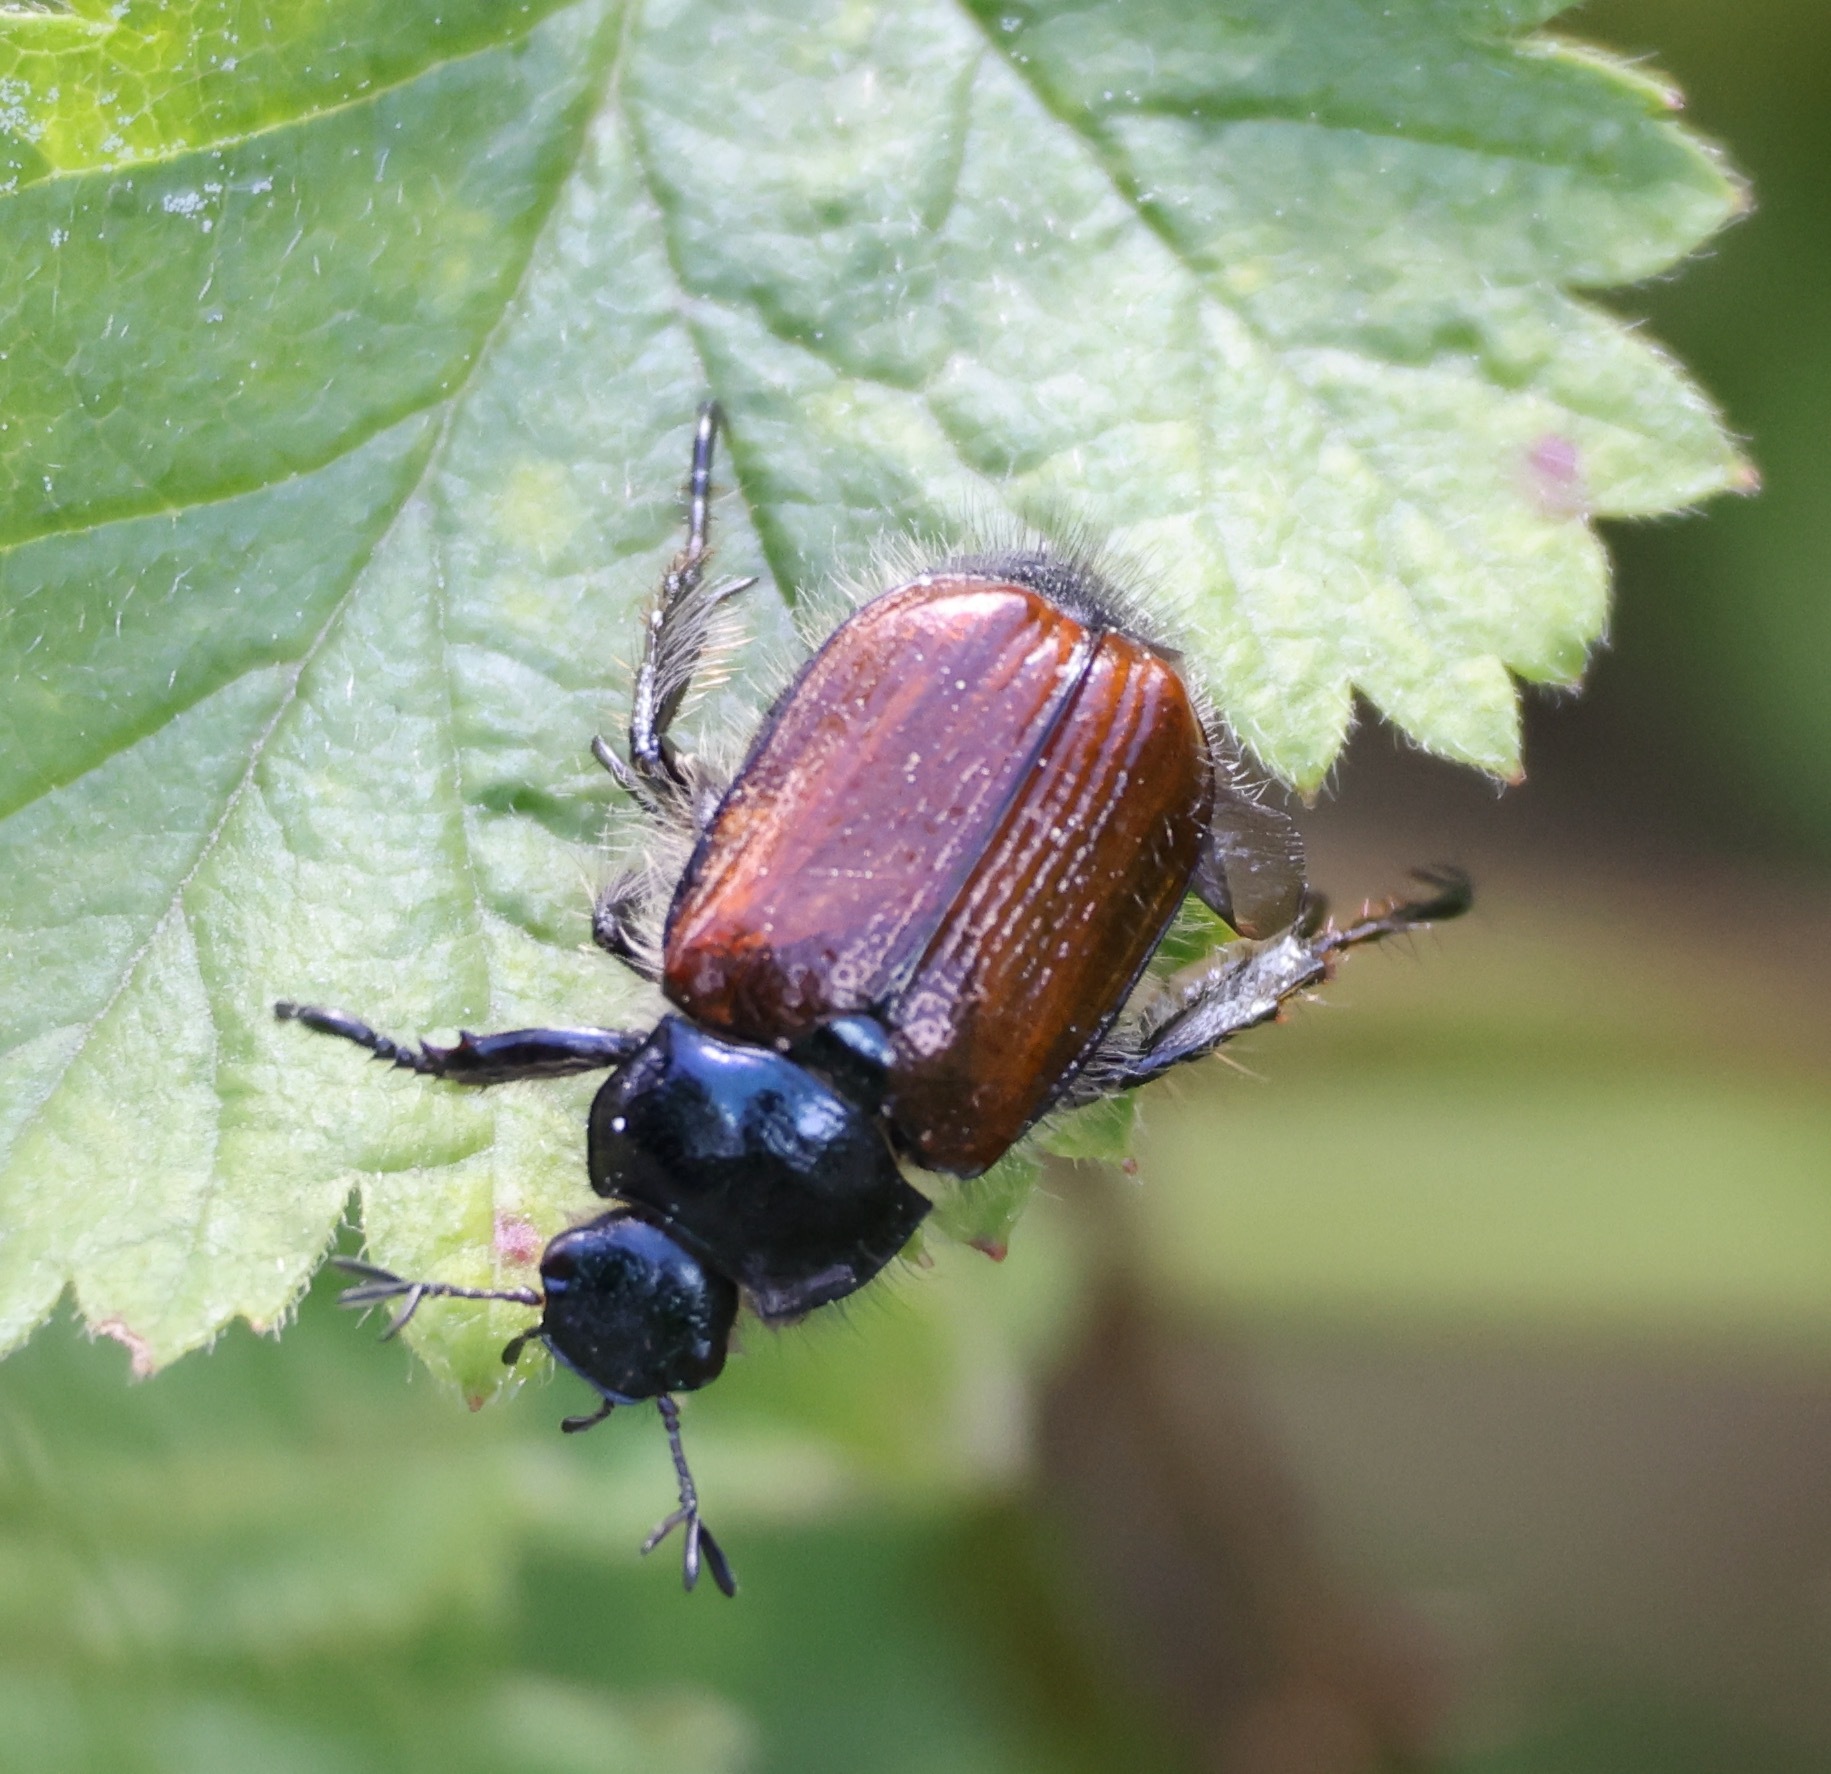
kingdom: Animalia
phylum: Arthropoda
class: Insecta
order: Coleoptera
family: Scarabaeidae
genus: Phyllopertha
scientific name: Phyllopertha horticola
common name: Garden chafer
